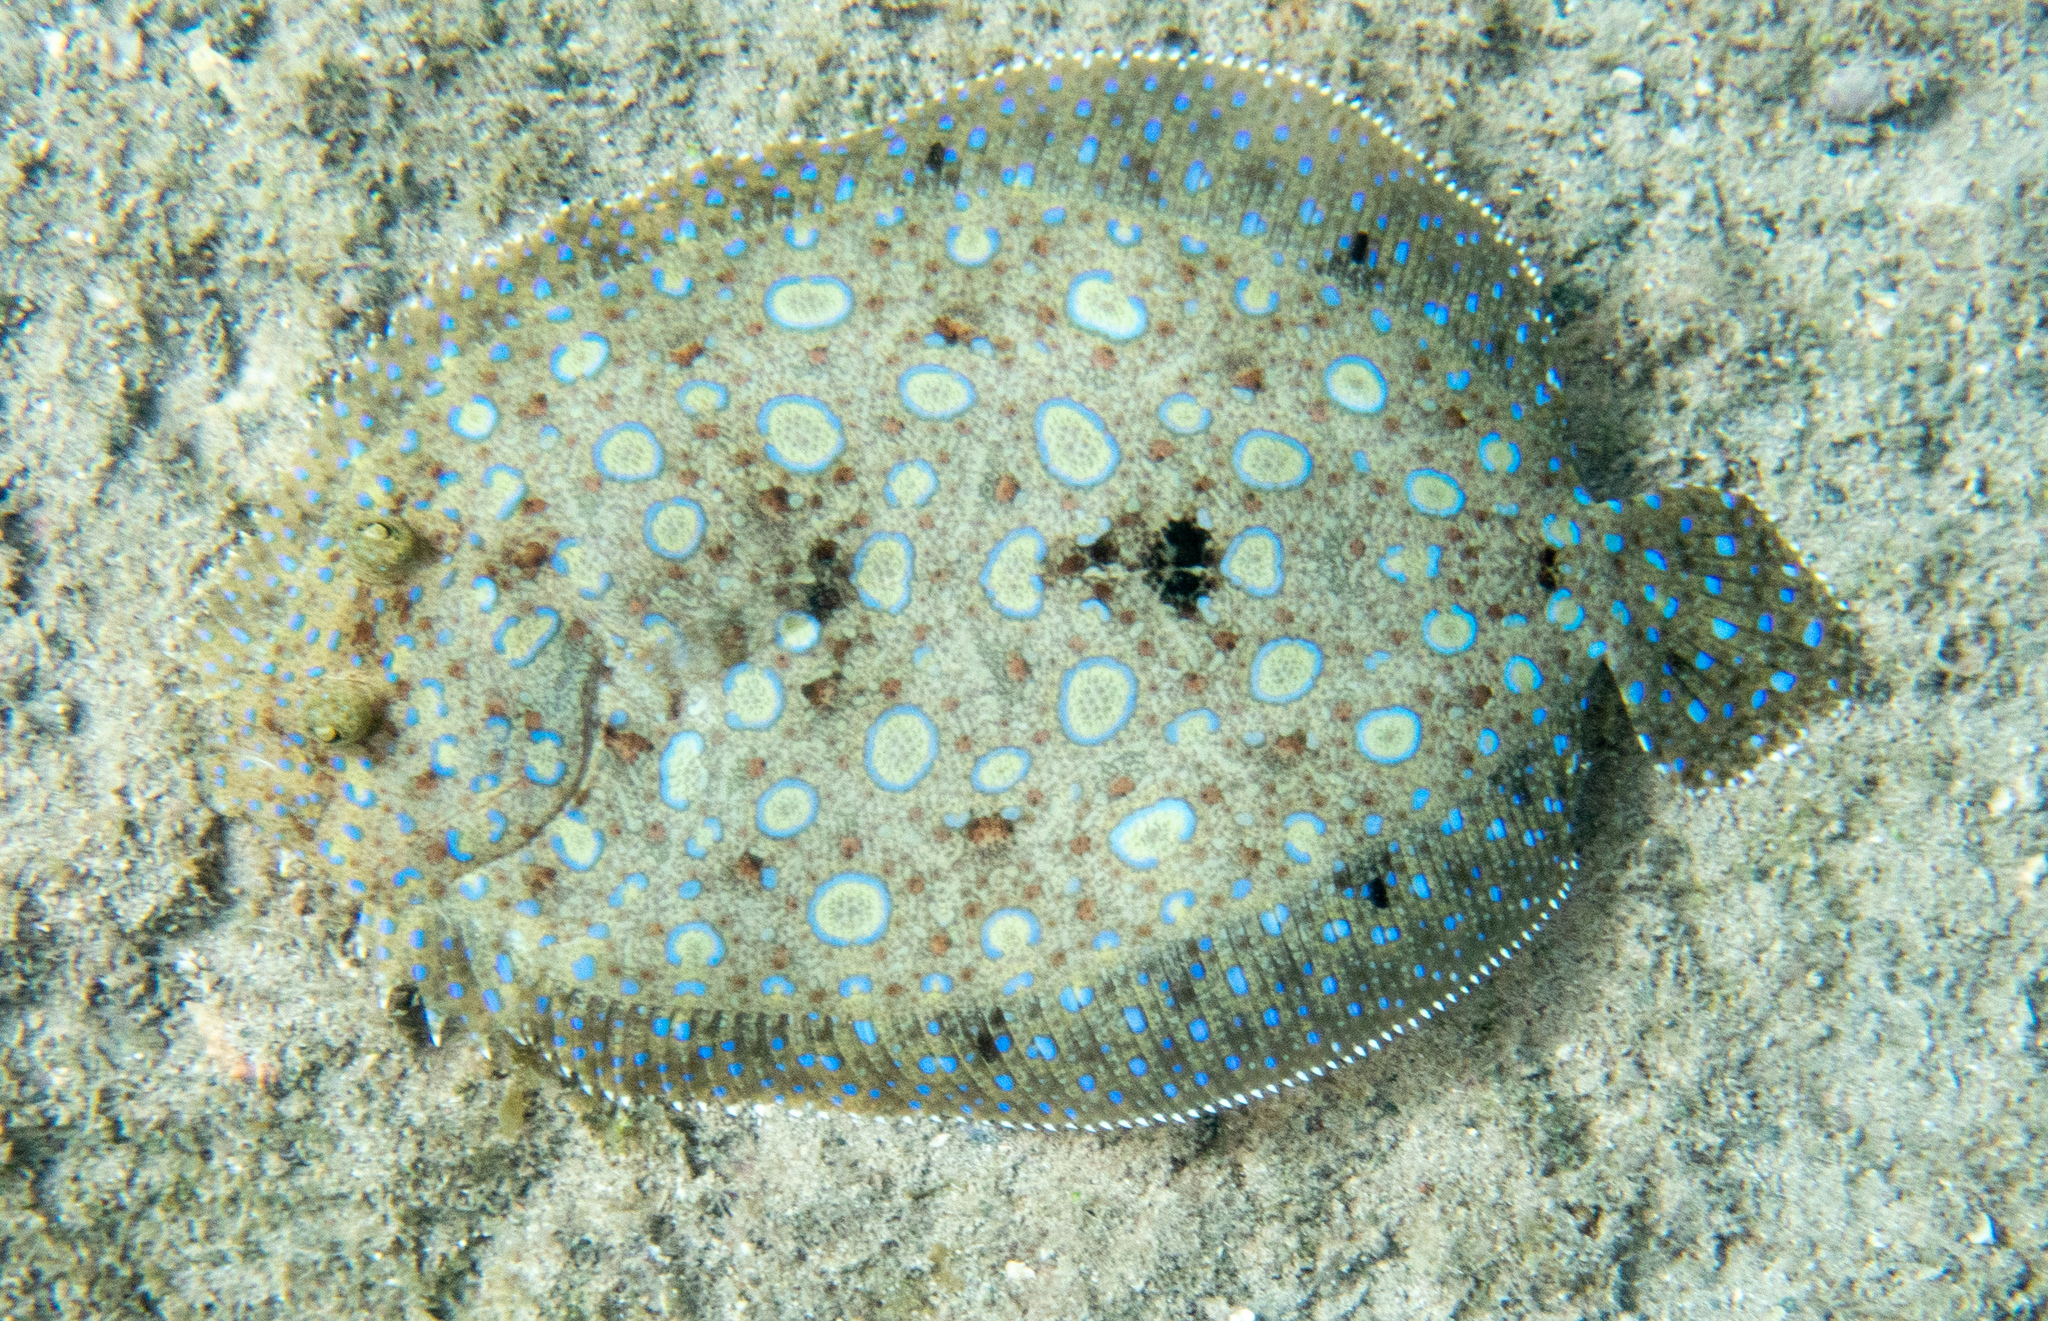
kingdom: Animalia
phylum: Chordata
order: Pleuronectiformes
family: Bothidae
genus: Bothus
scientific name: Bothus lunatus
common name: Peacock flounder
